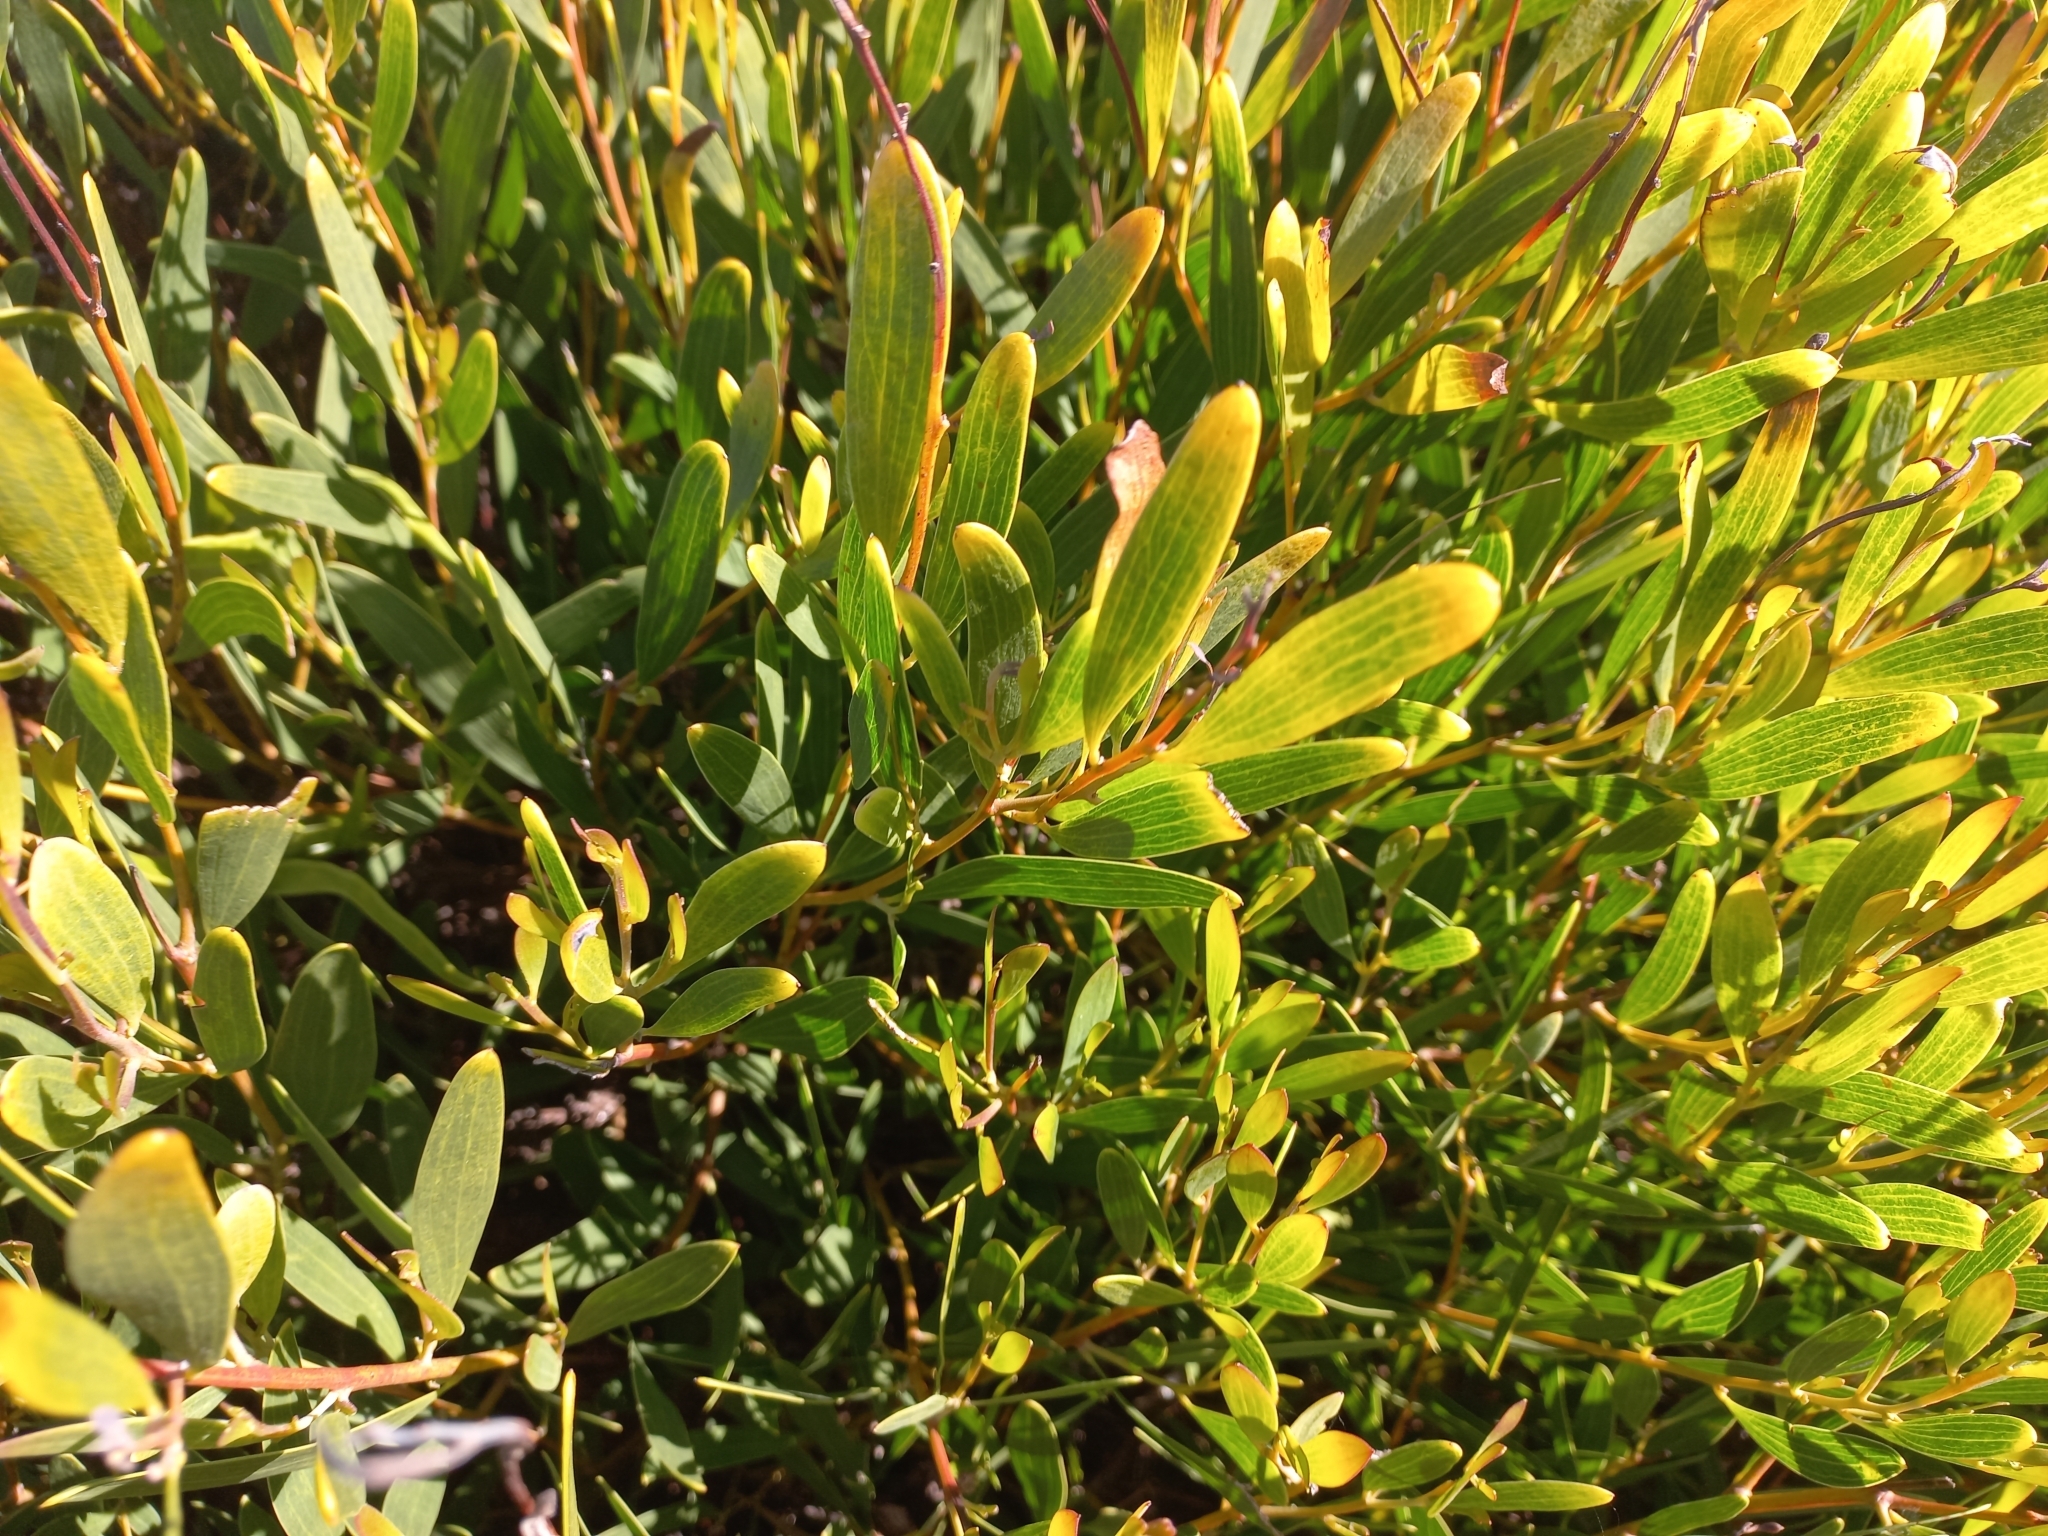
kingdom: Plantae
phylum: Tracheophyta
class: Magnoliopsida
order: Fabales
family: Fabaceae
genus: Acacia
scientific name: Acacia cyclops
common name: Coastal wattle
